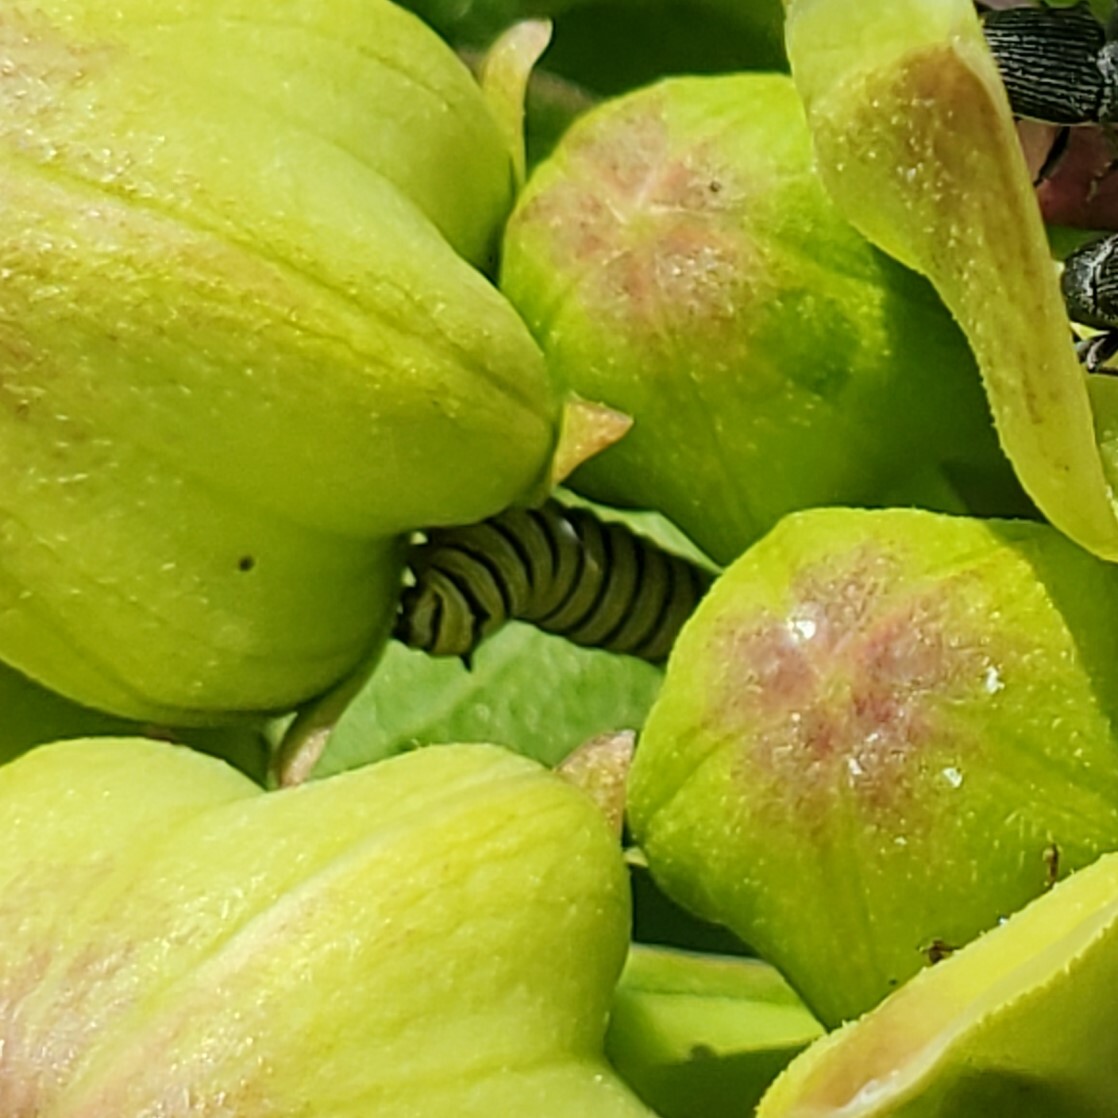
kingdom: Animalia
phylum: Arthropoda
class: Insecta
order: Lepidoptera
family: Nymphalidae
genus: Danaus
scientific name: Danaus plexippus
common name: Monarch
